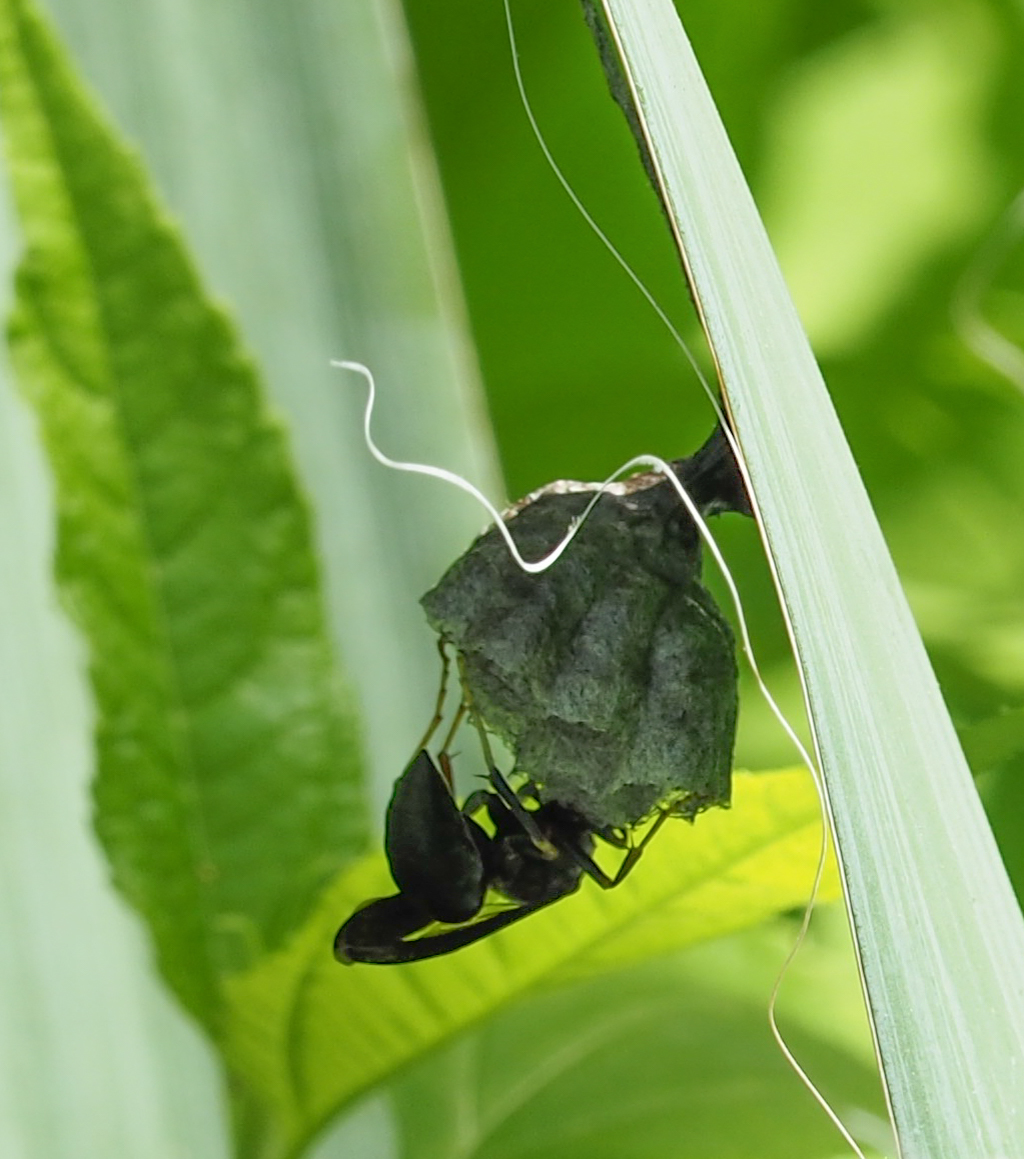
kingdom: Animalia
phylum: Arthropoda
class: Insecta
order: Hymenoptera
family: Vespidae
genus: Fuscopolistes
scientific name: Fuscopolistes
